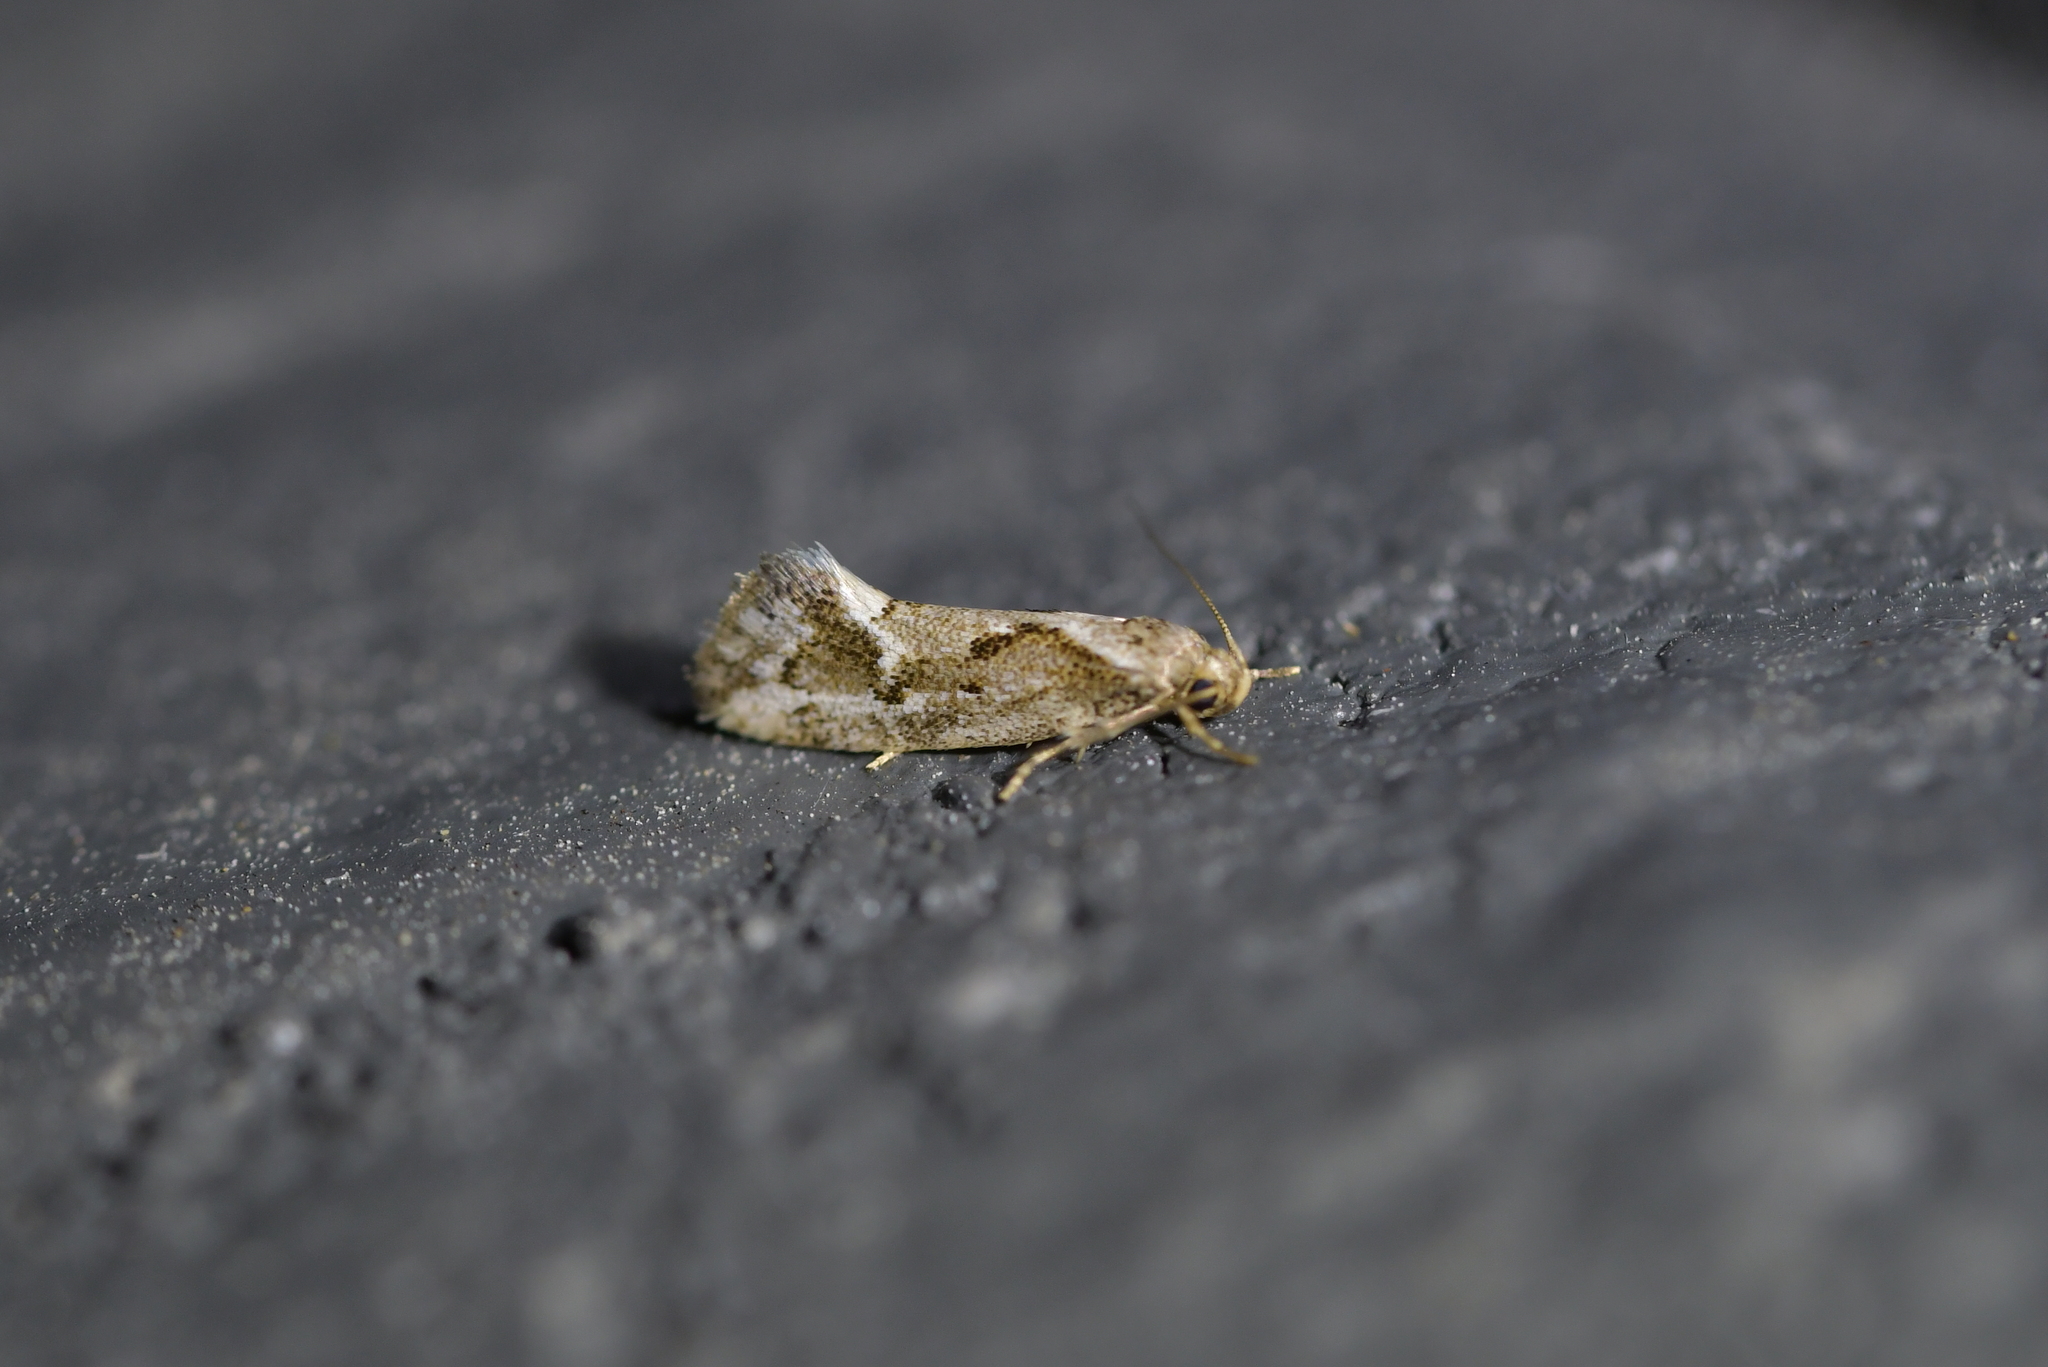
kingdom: Animalia
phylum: Arthropoda
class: Insecta
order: Lepidoptera
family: Oecophoridae
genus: Tingena
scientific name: Tingena hemimochla
